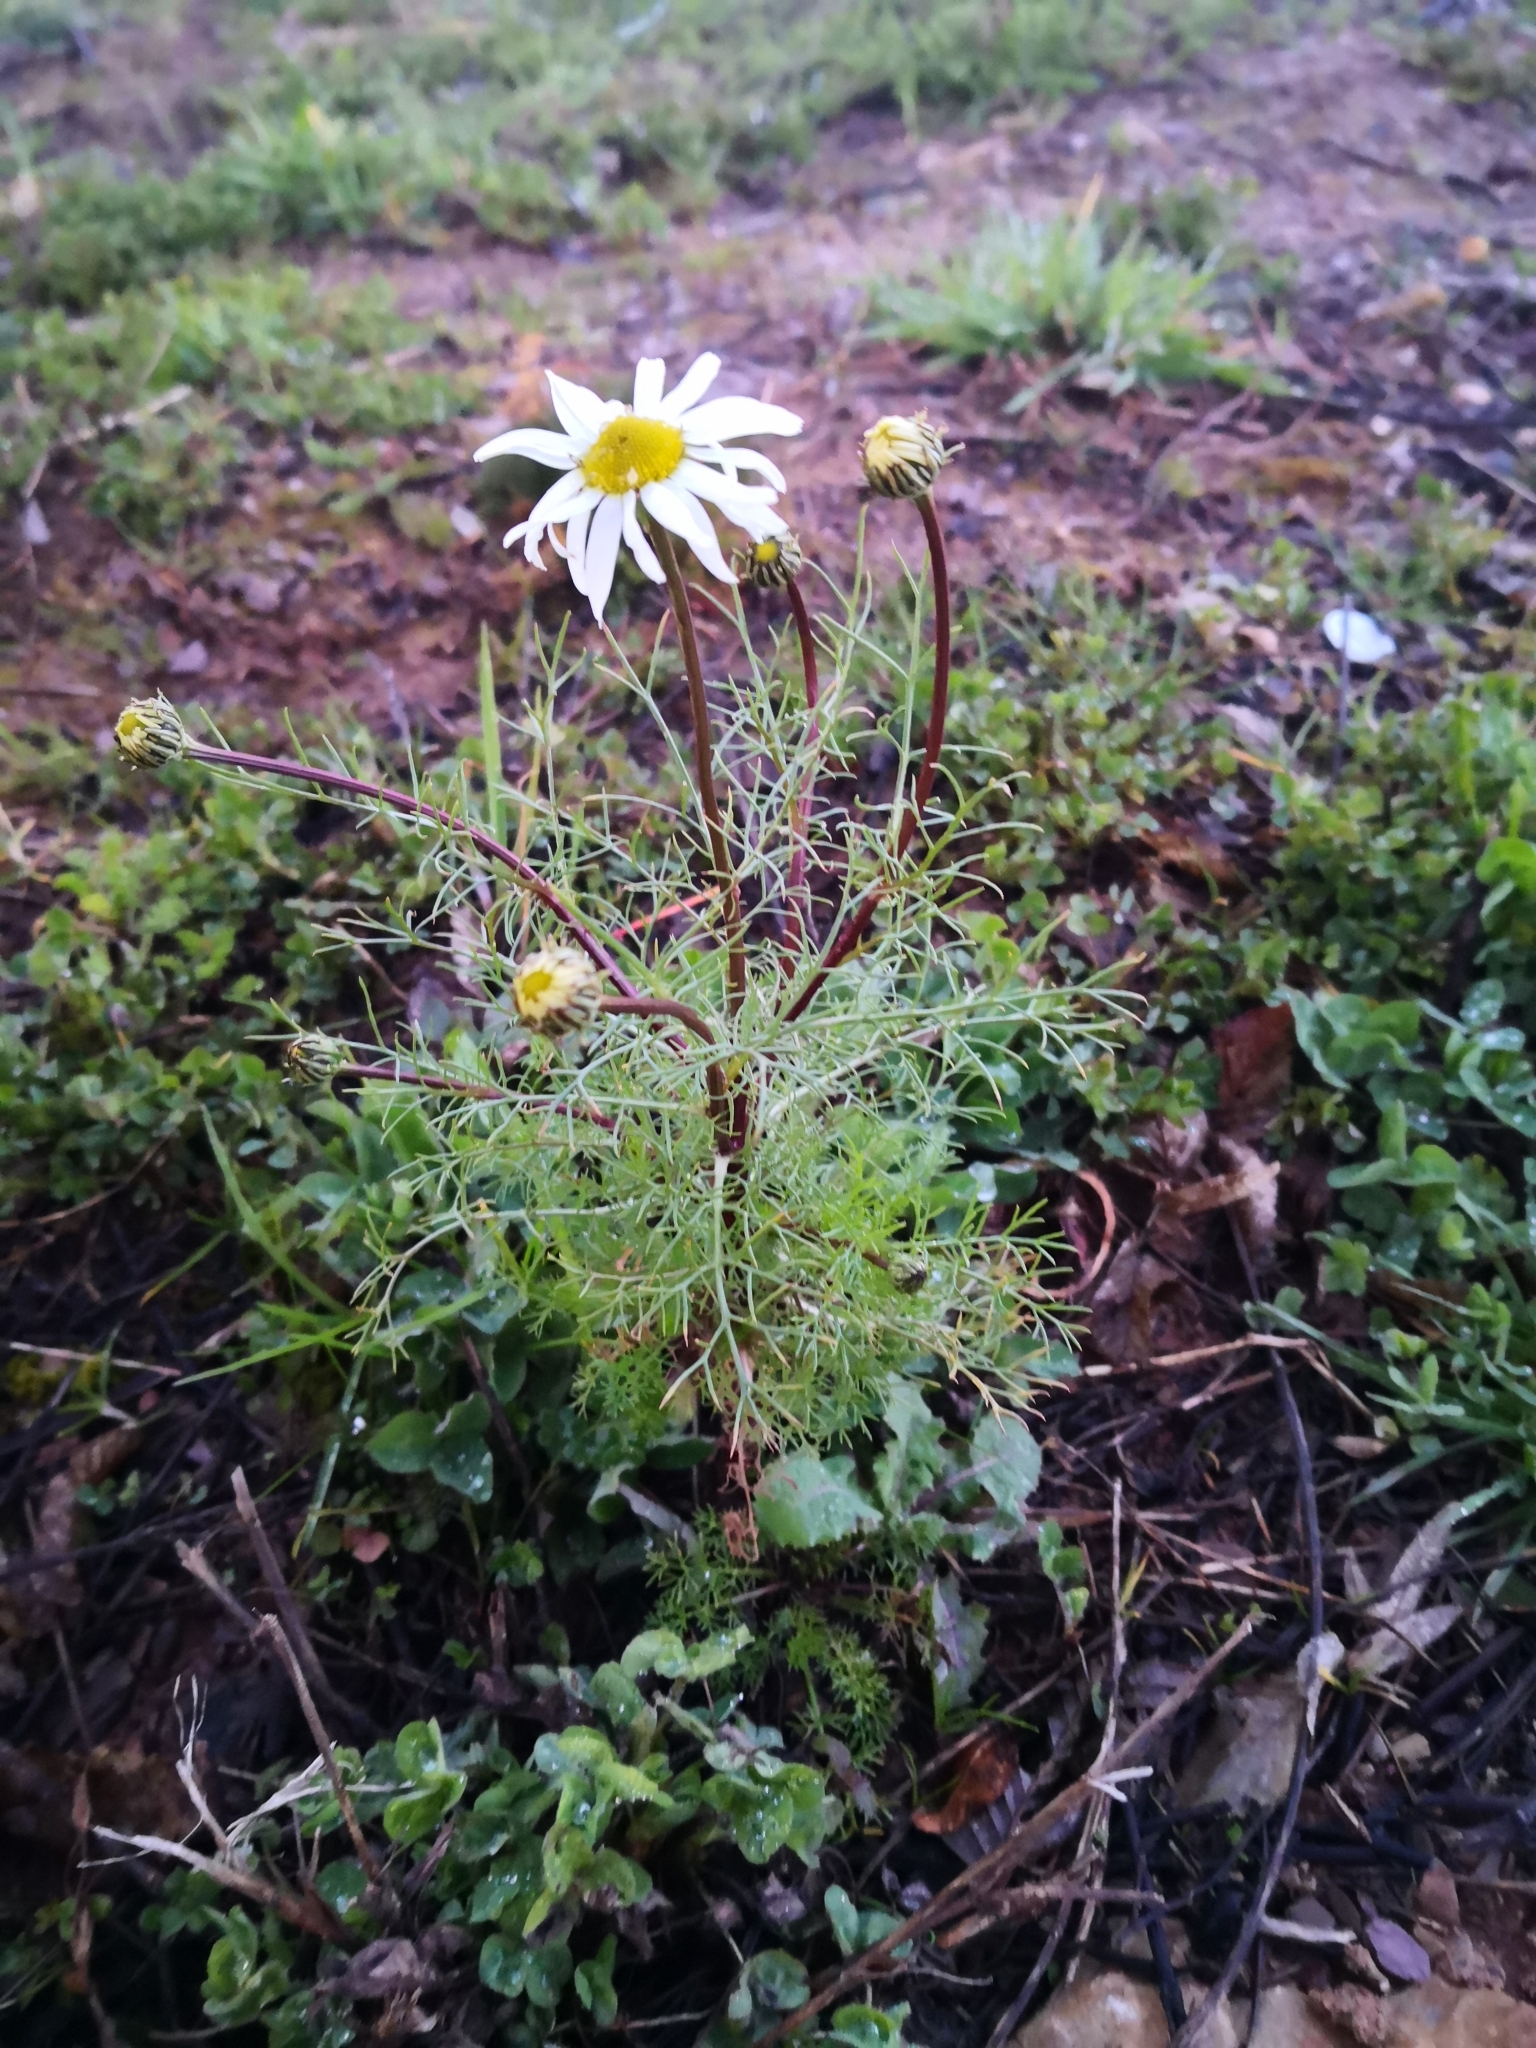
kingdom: Plantae
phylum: Tracheophyta
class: Magnoliopsida
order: Asterales
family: Asteraceae
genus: Tripleurospermum
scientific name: Tripleurospermum inodorum
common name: Scentless mayweed
